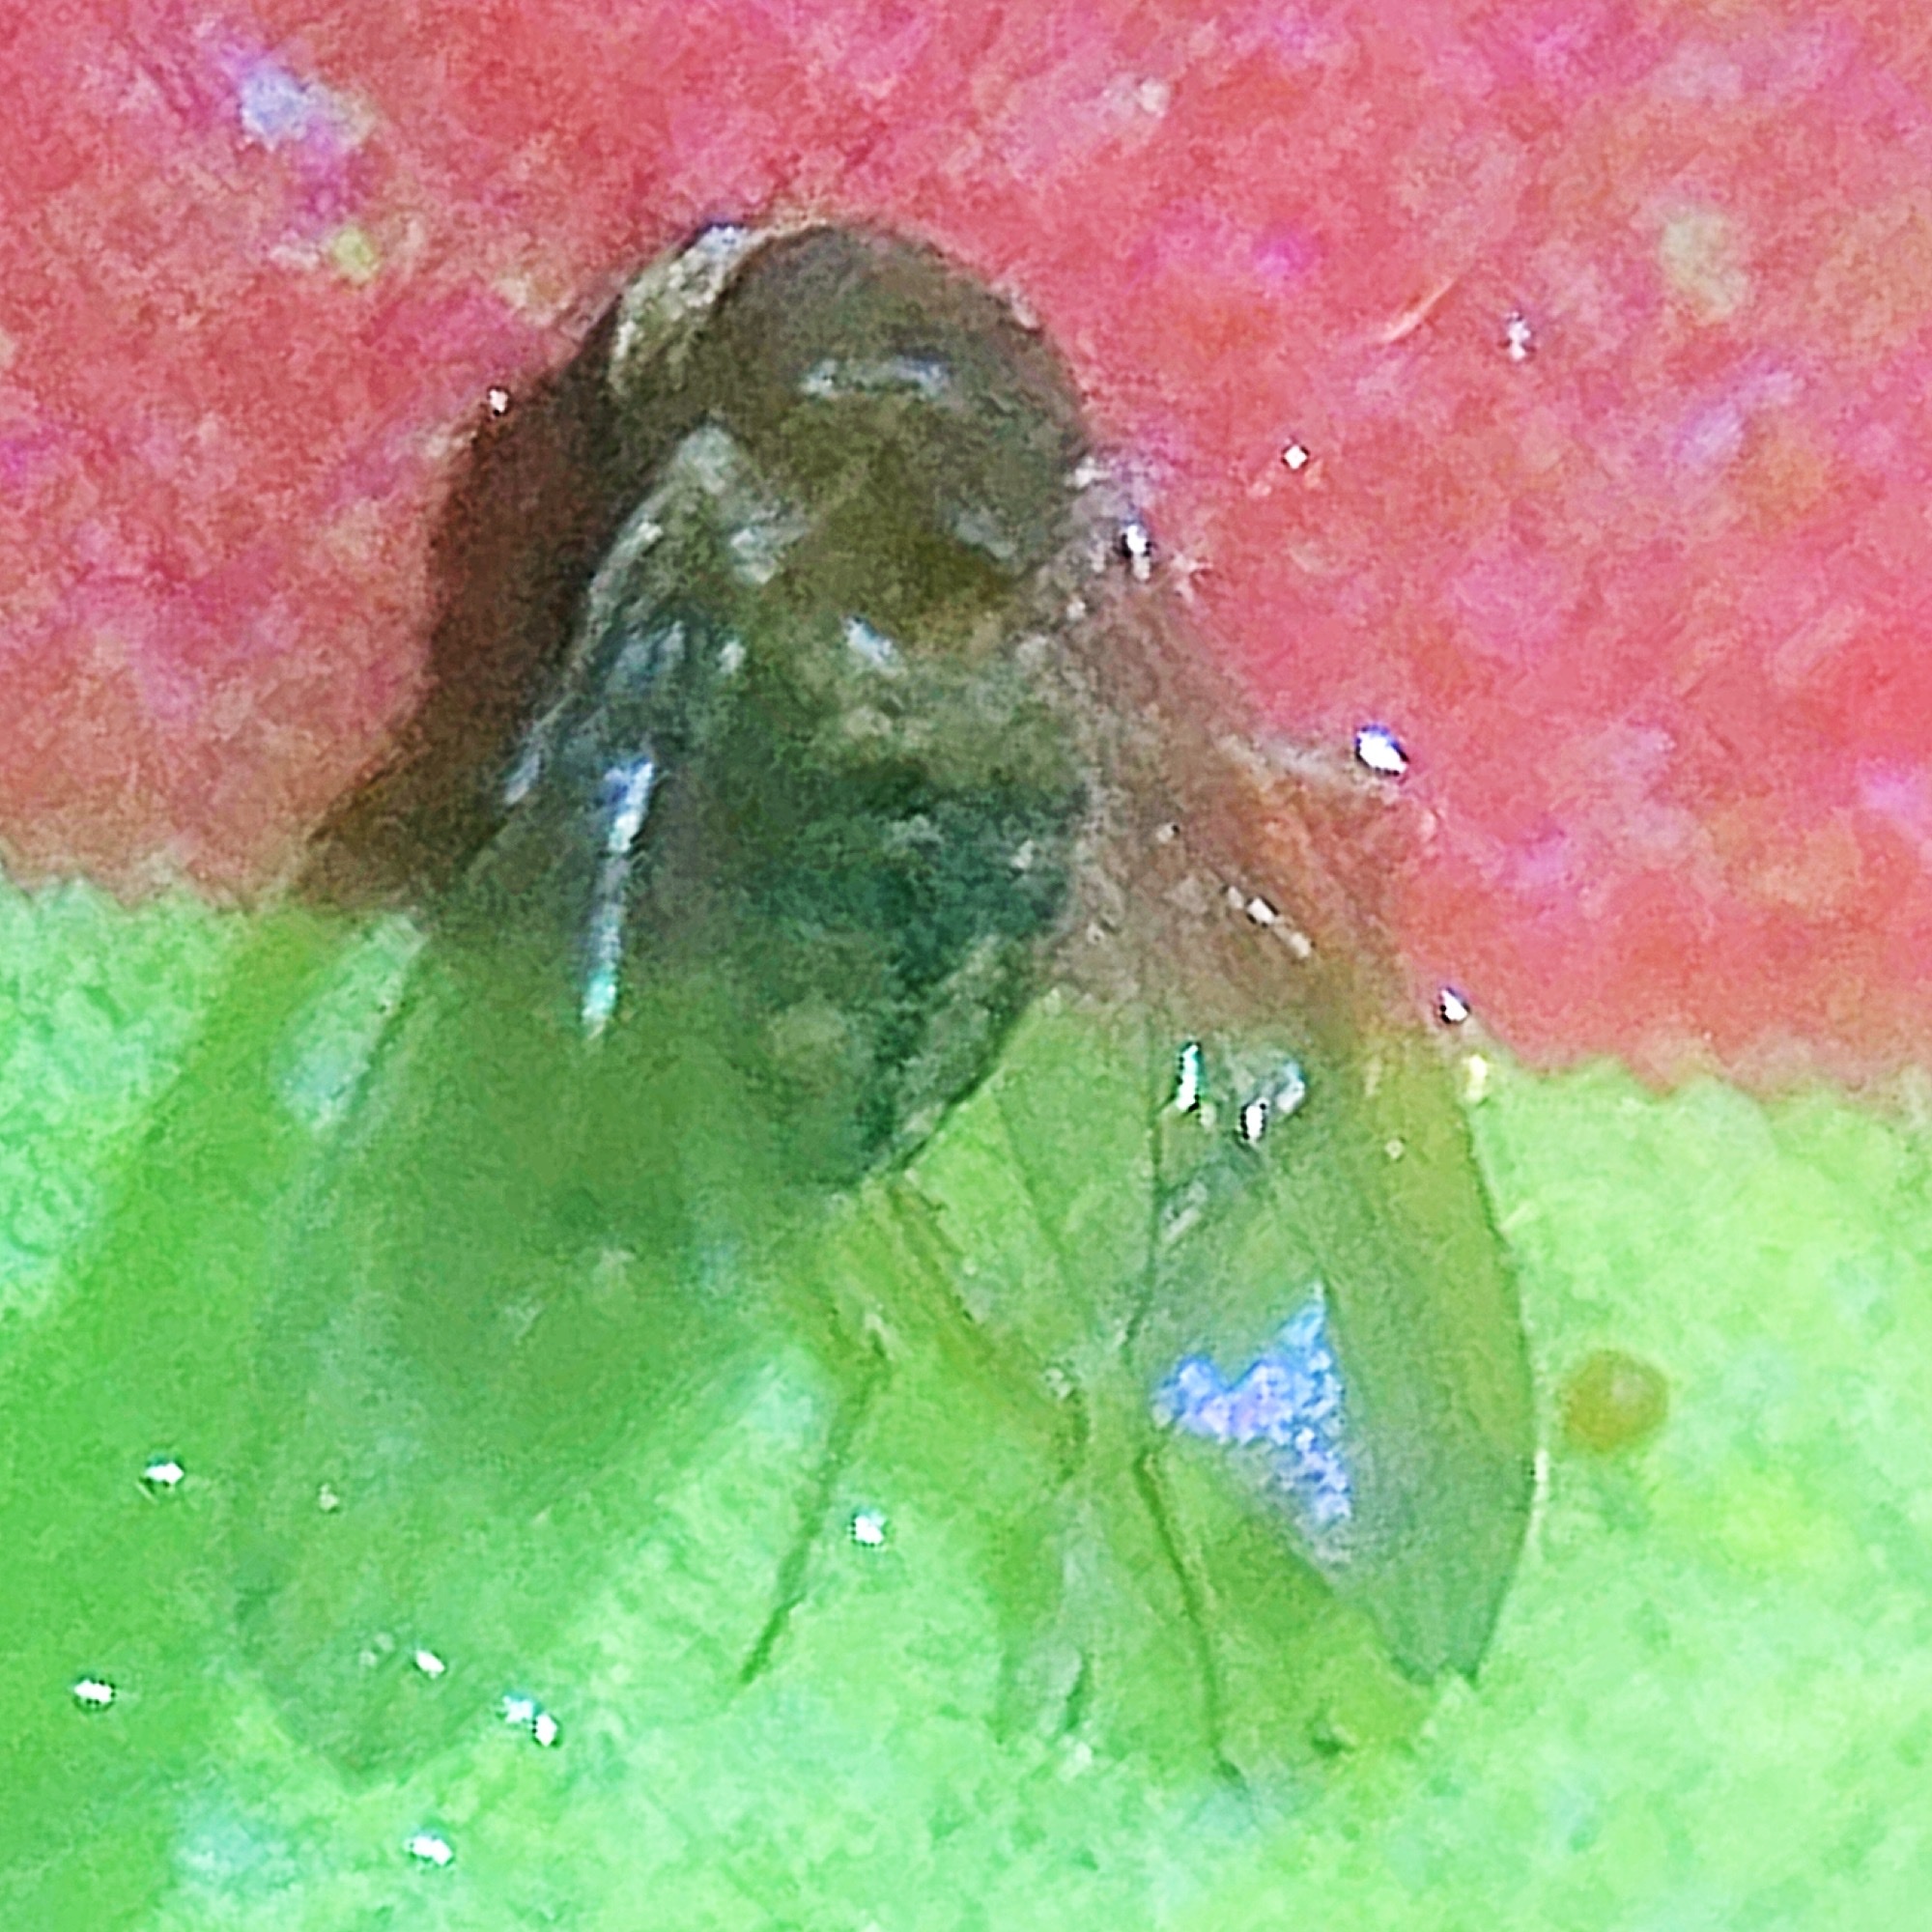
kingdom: Animalia
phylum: Arthropoda
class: Insecta
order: Diptera
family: Drosophilidae
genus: Drosophila
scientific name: Drosophila tripunctata
